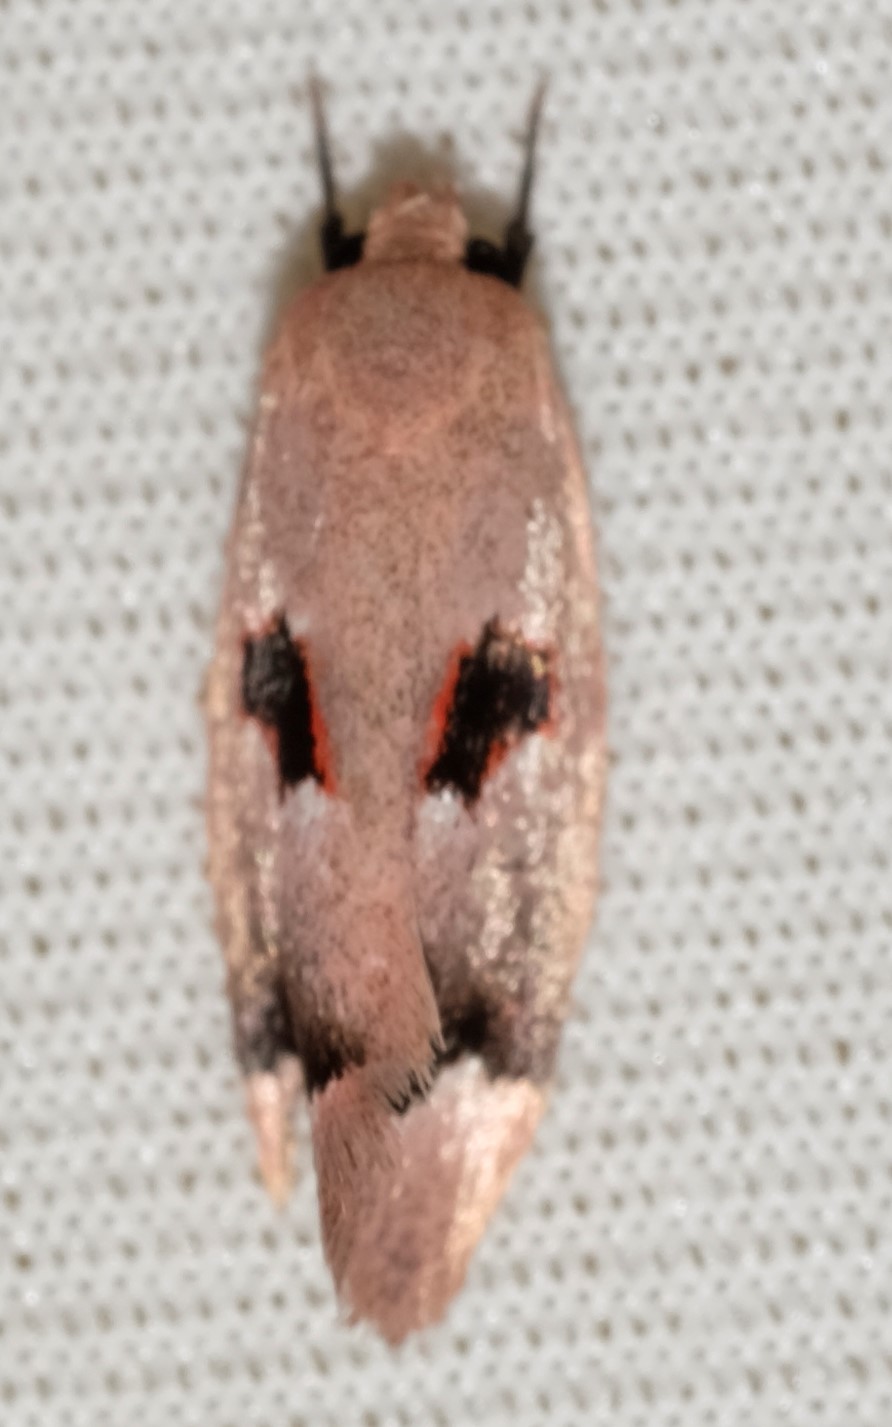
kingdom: Animalia
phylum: Arthropoda
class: Insecta
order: Lepidoptera
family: Oecophoridae
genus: Acanthodela
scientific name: Acanthodela erythrosema
